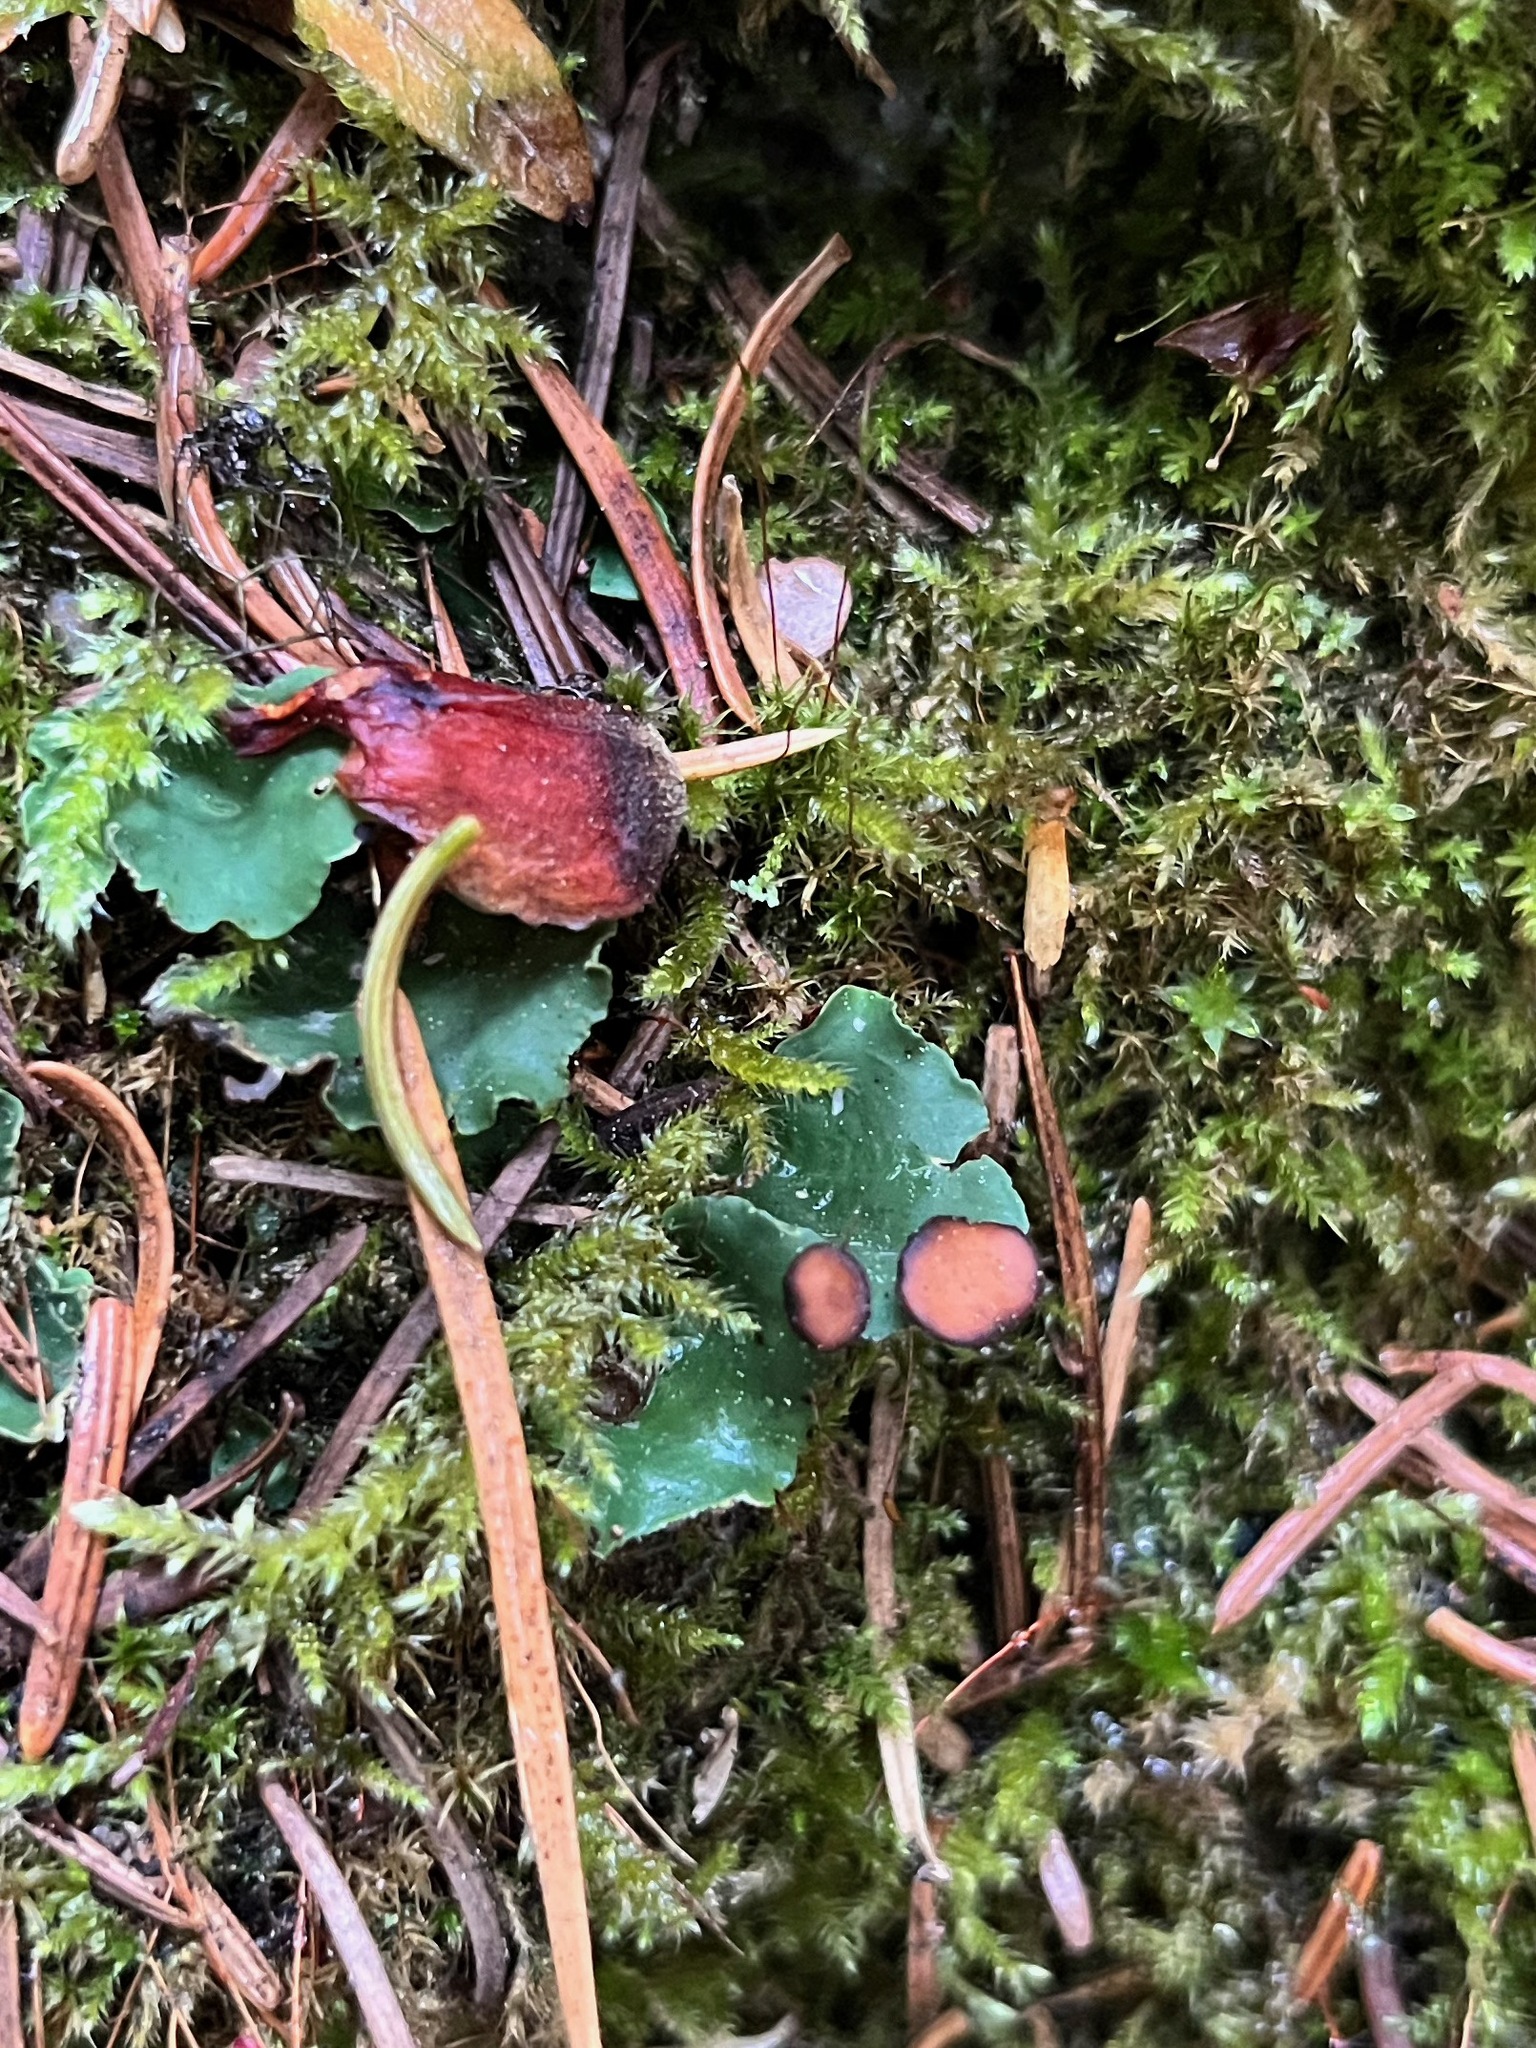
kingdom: Fungi
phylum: Ascomycota
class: Lecanoromycetes
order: Peltigerales
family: Peltigeraceae
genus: Peltigera
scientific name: Peltigera venosa
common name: Pixie gowns lichen
